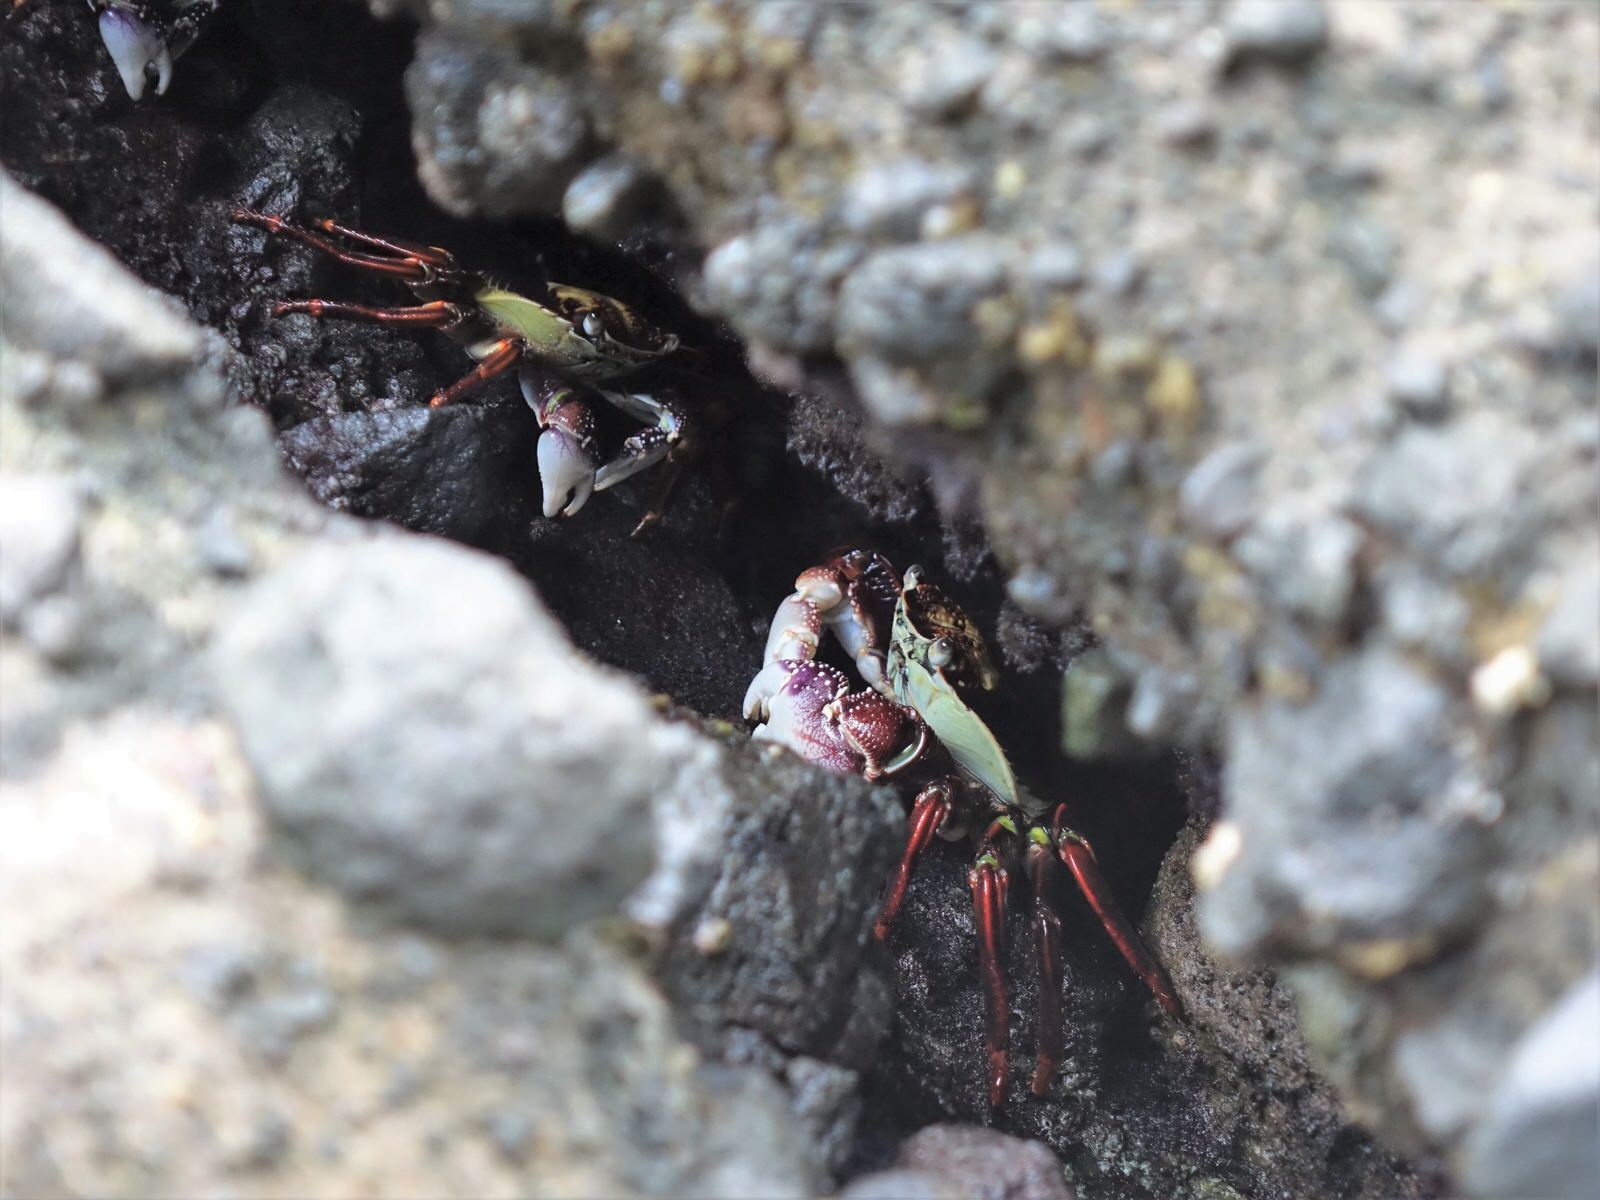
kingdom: Animalia
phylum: Arthropoda
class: Malacostraca
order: Decapoda
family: Grapsidae
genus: Leptograpsus
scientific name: Leptograpsus variegatus
